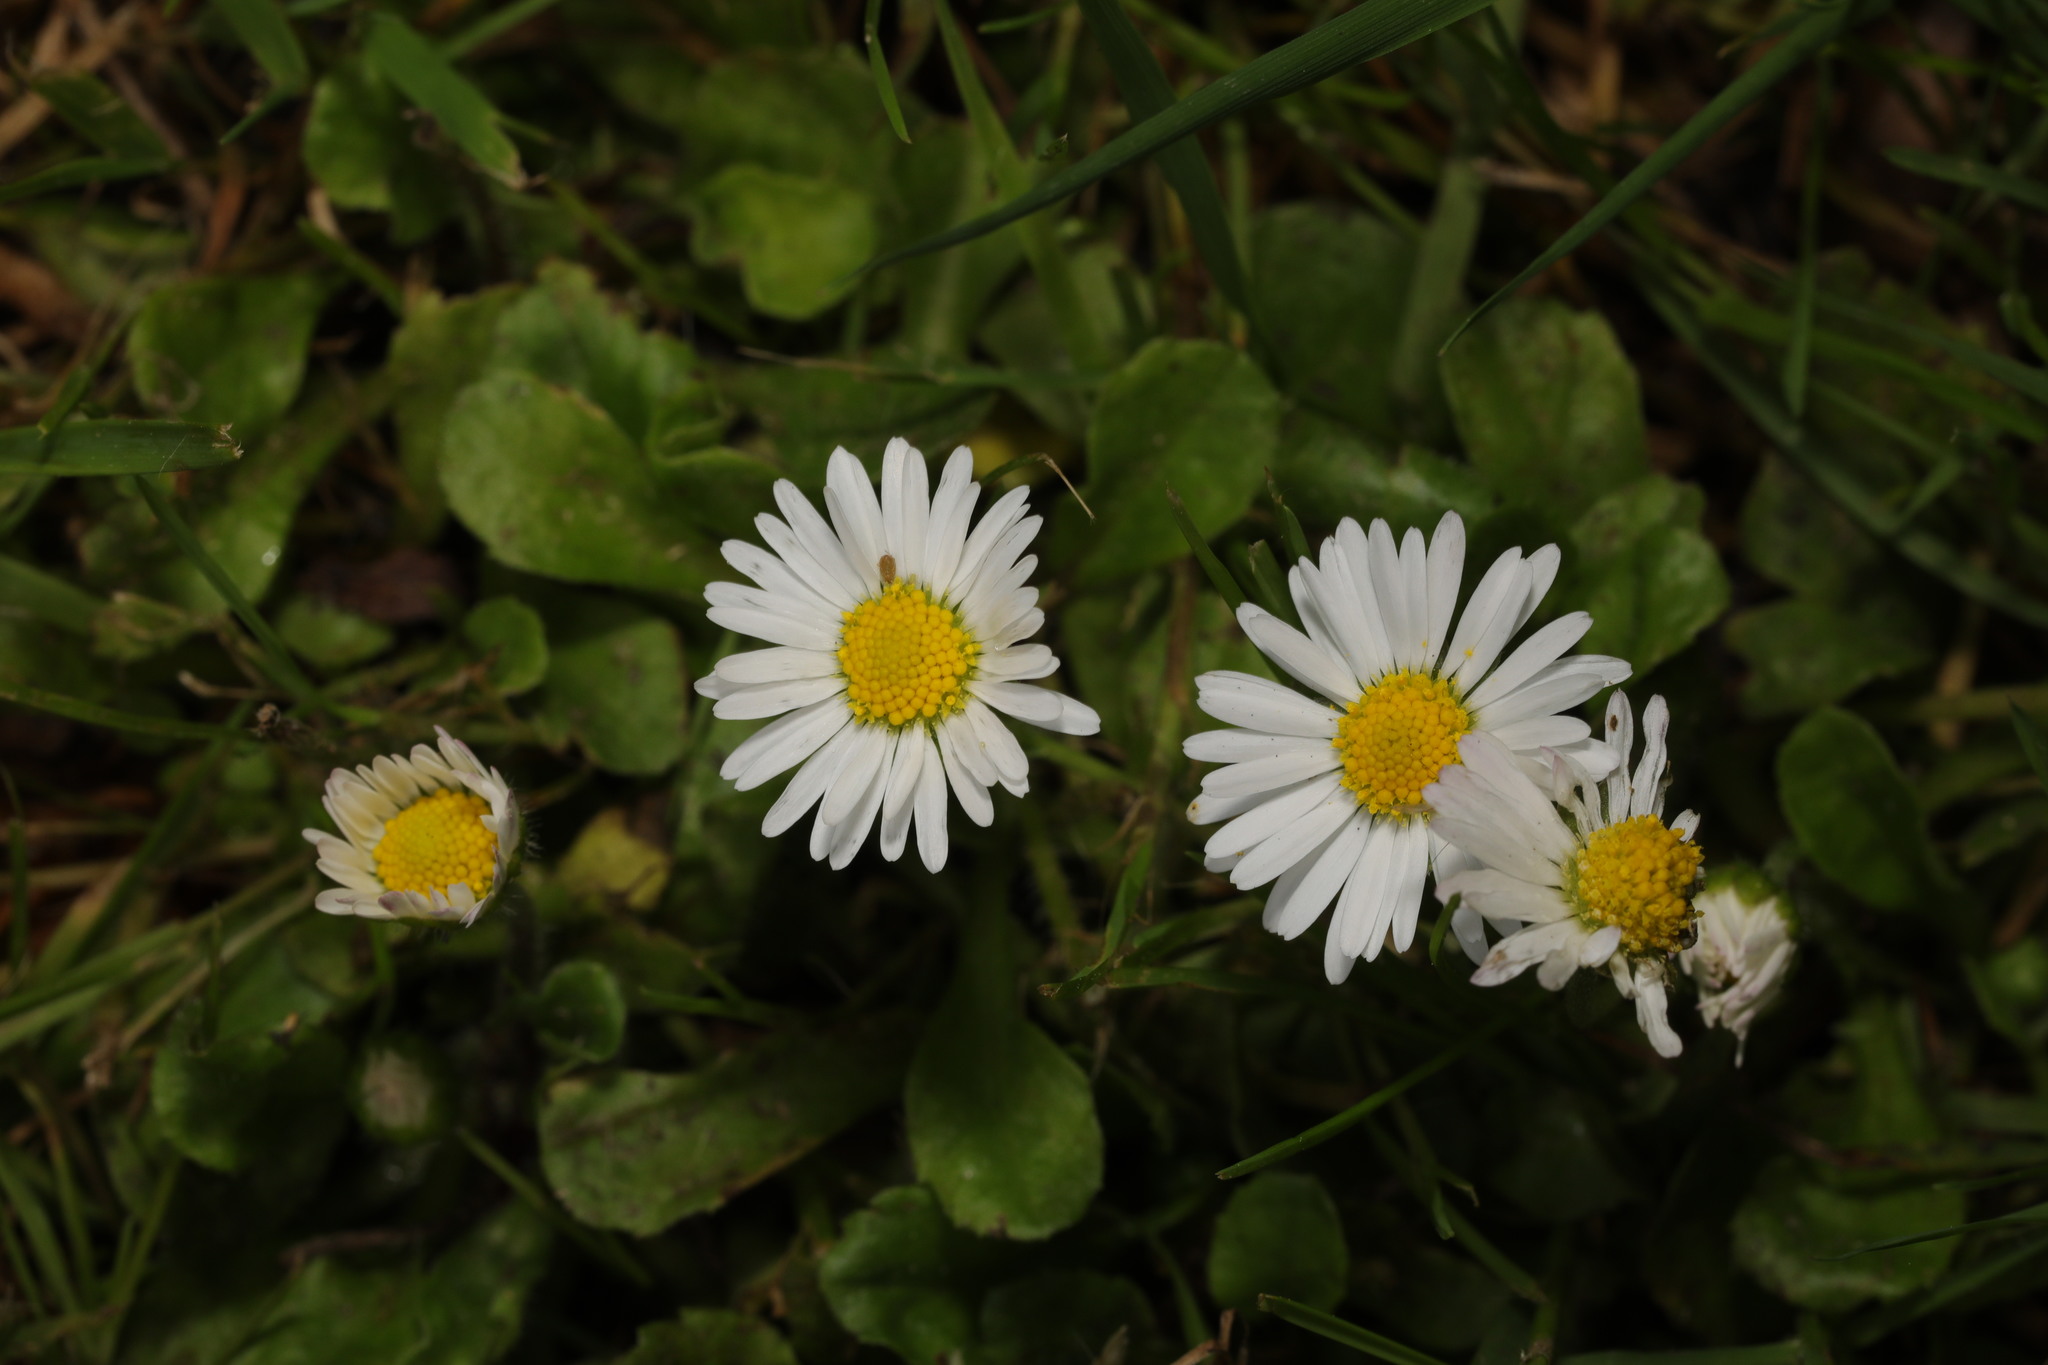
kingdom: Plantae
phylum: Tracheophyta
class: Magnoliopsida
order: Asterales
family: Asteraceae
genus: Bellis
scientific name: Bellis perennis
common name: Lawndaisy
